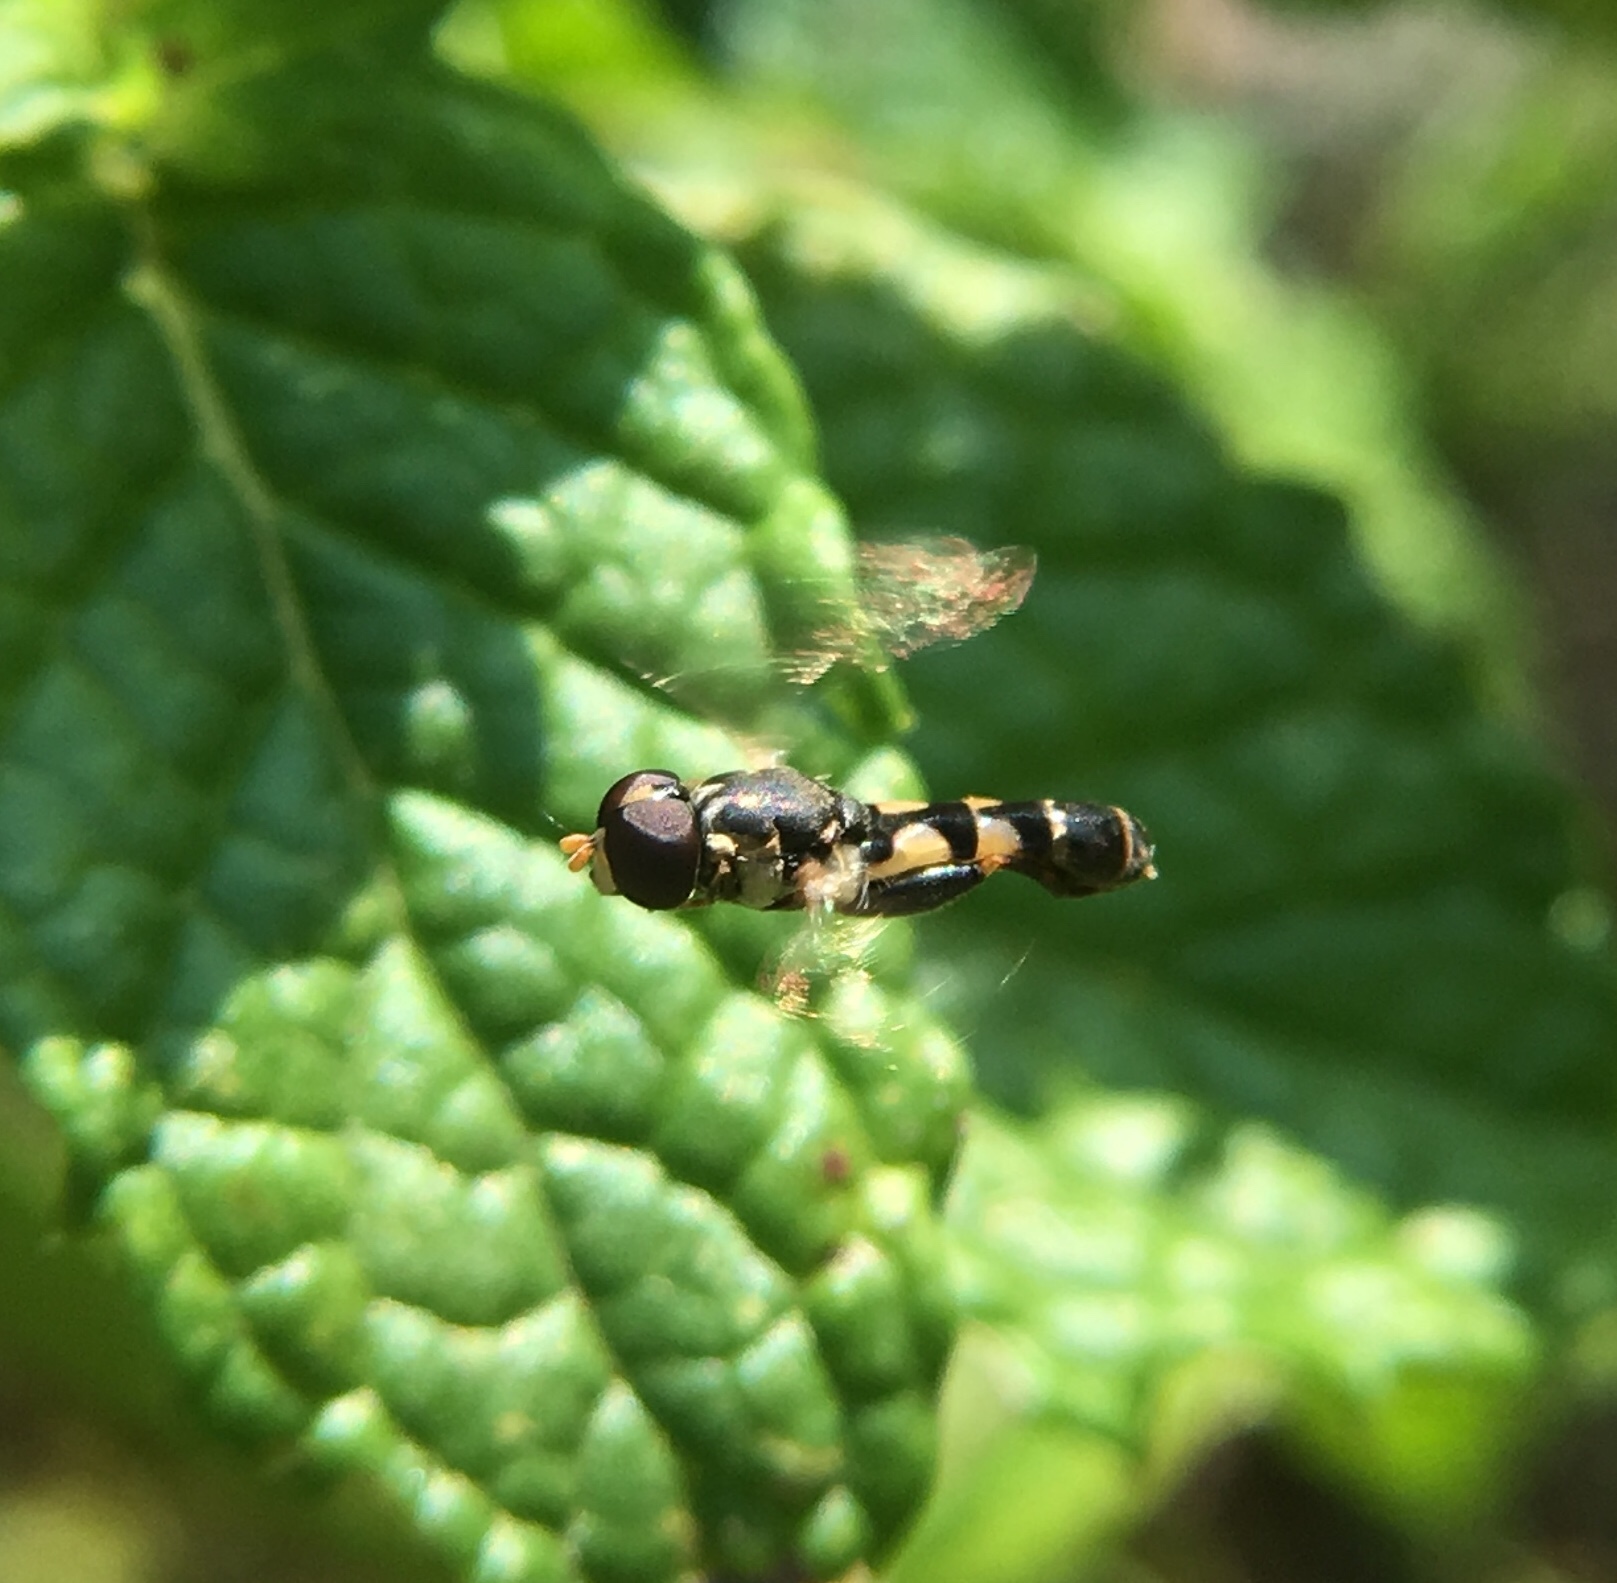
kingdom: Animalia
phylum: Arthropoda
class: Insecta
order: Diptera
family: Syrphidae
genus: Syritta
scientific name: Syritta pipiens
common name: Hover fly
